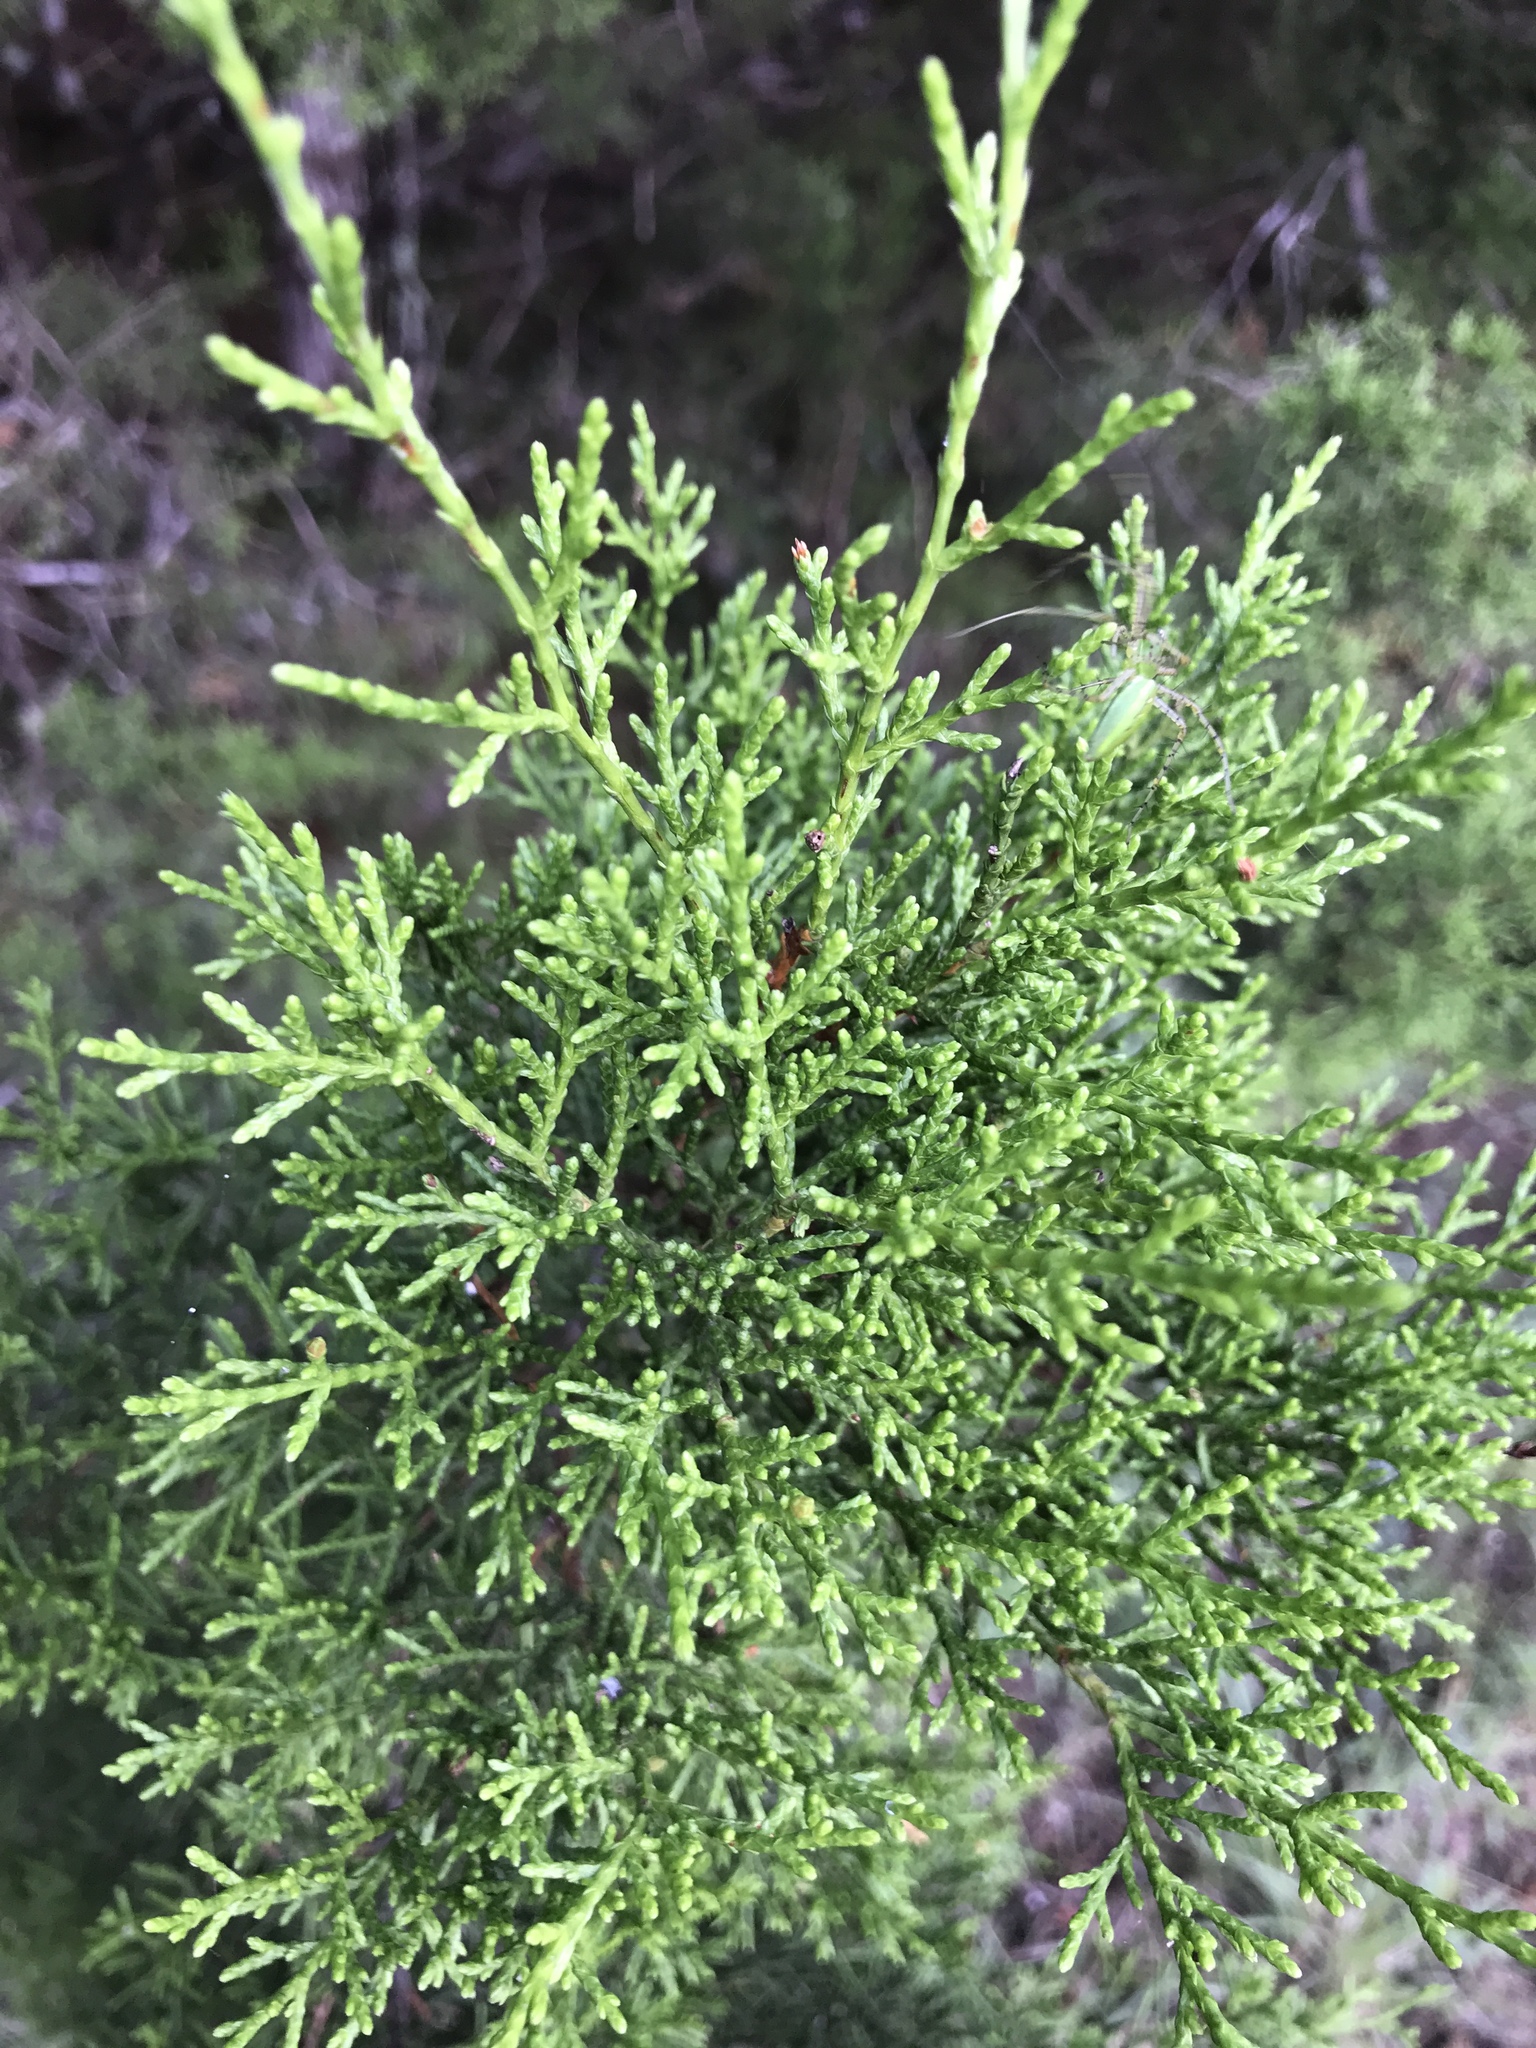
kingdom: Plantae
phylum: Tracheophyta
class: Pinopsida
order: Pinales
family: Cupressaceae
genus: Juniperus
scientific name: Juniperus ashei
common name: Mexican juniper
